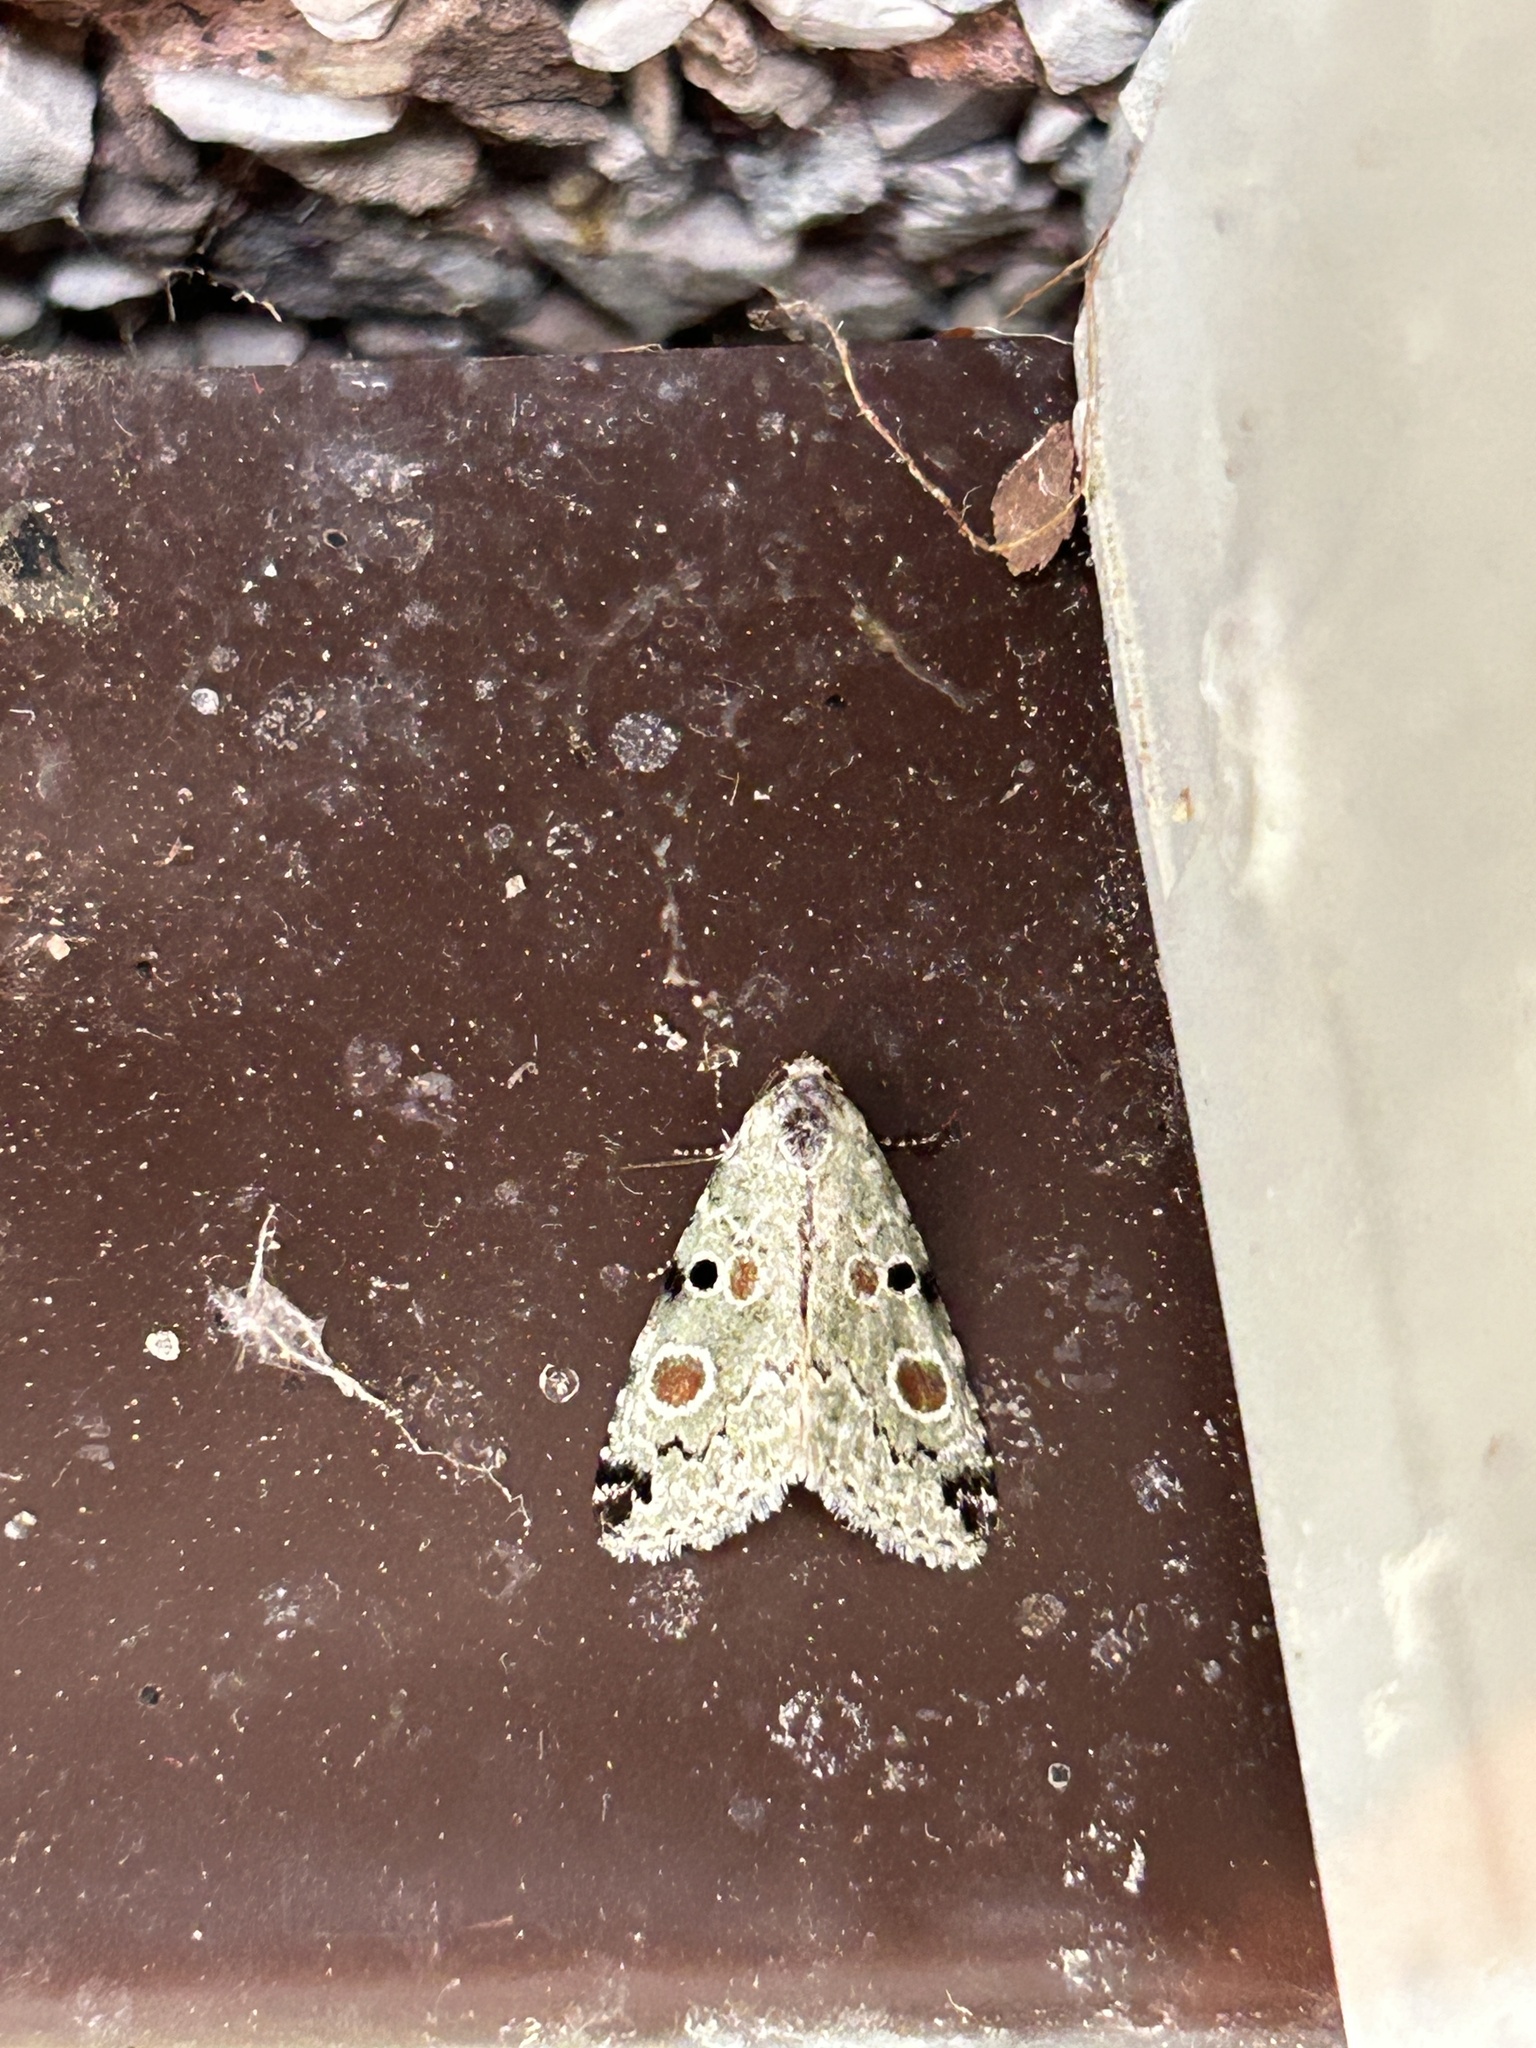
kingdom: Animalia
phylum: Arthropoda
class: Insecta
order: Lepidoptera
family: Noctuidae
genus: Maliattha
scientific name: Maliattha concinnimacula
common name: Red-spotted glyph
